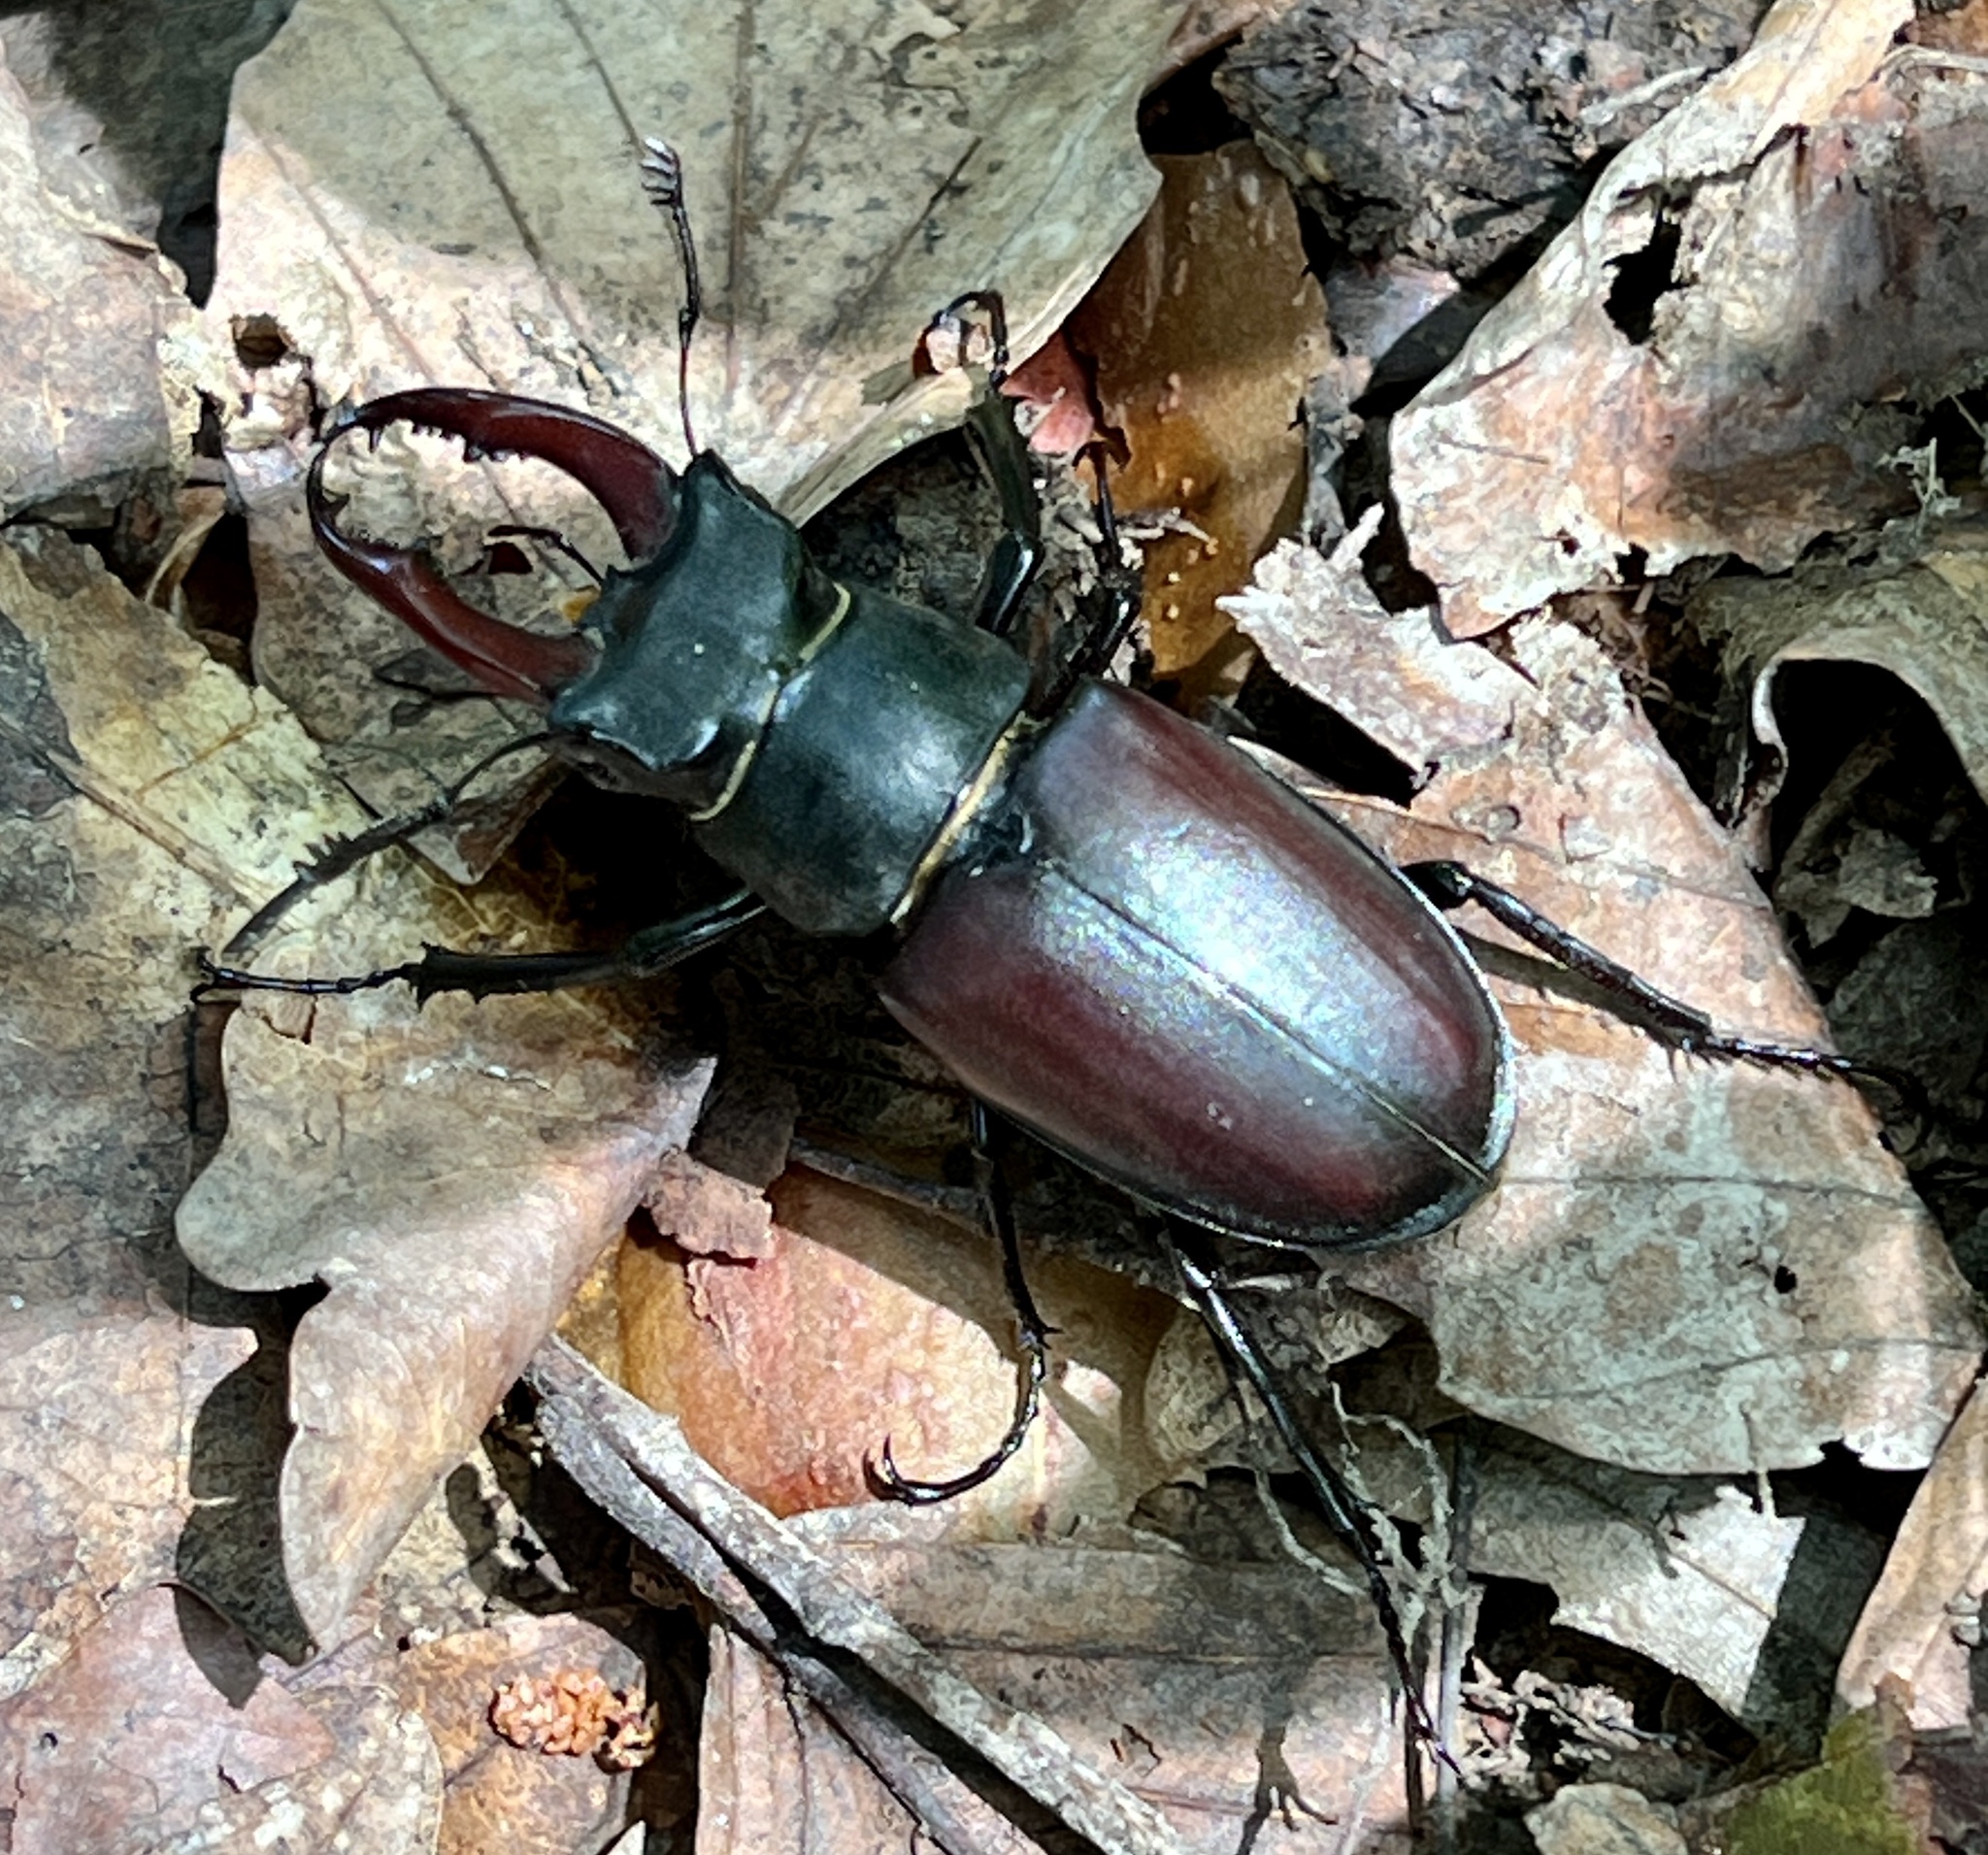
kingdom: Animalia
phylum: Arthropoda
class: Insecta
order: Coleoptera
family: Lucanidae
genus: Lucanus
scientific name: Lucanus cervus
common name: Stag beetle
